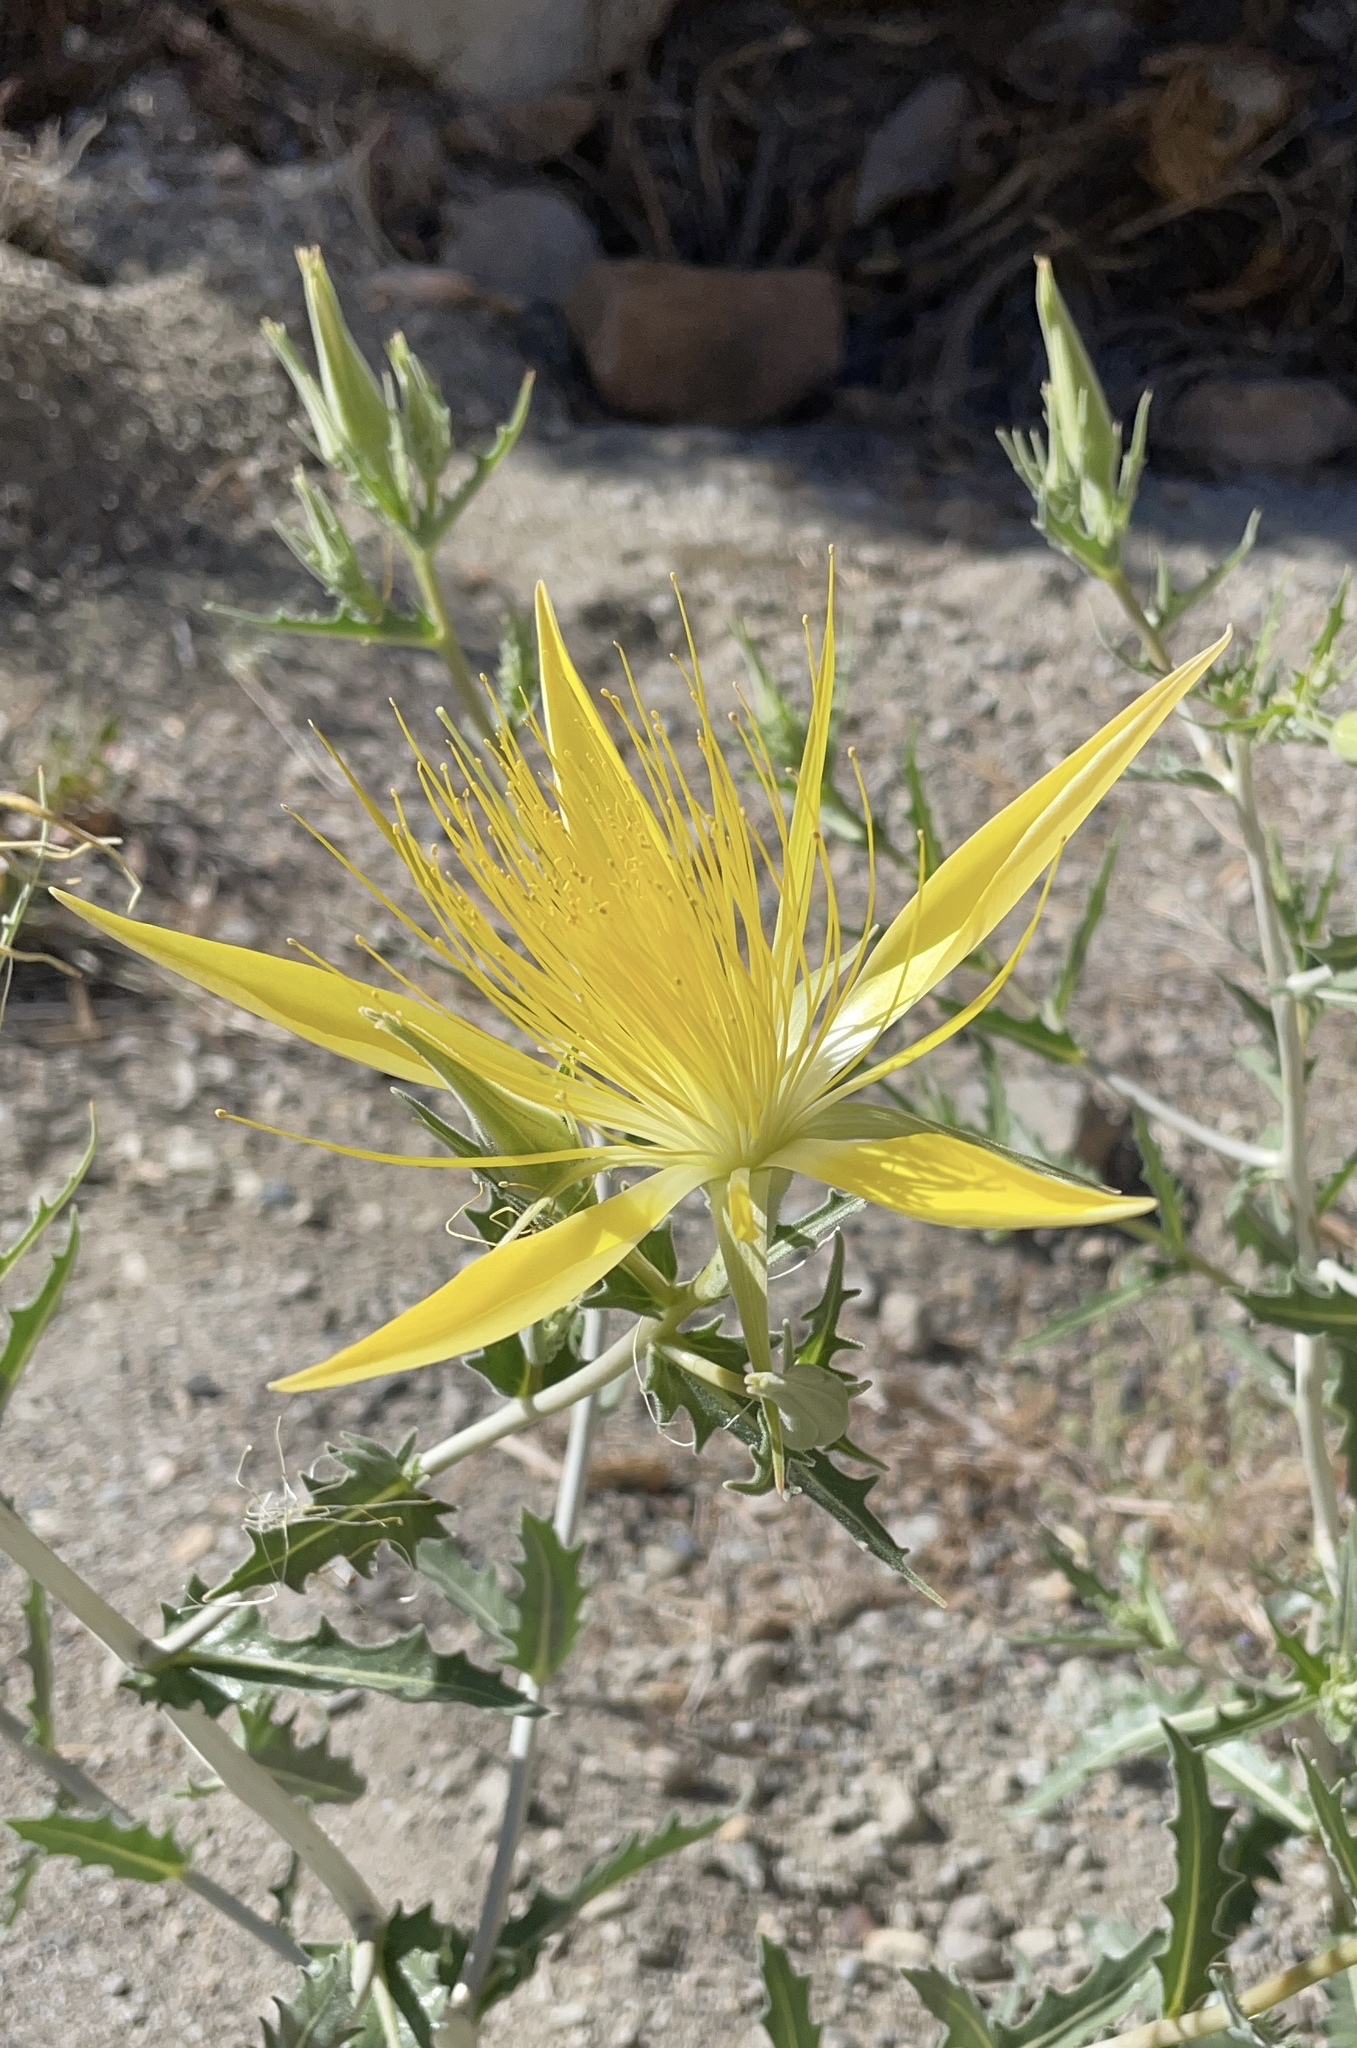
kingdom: Plantae
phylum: Tracheophyta
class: Magnoliopsida
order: Cornales
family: Loasaceae
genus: Mentzelia
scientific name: Mentzelia laevicaulis
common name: Smooth-stem blazingstar
